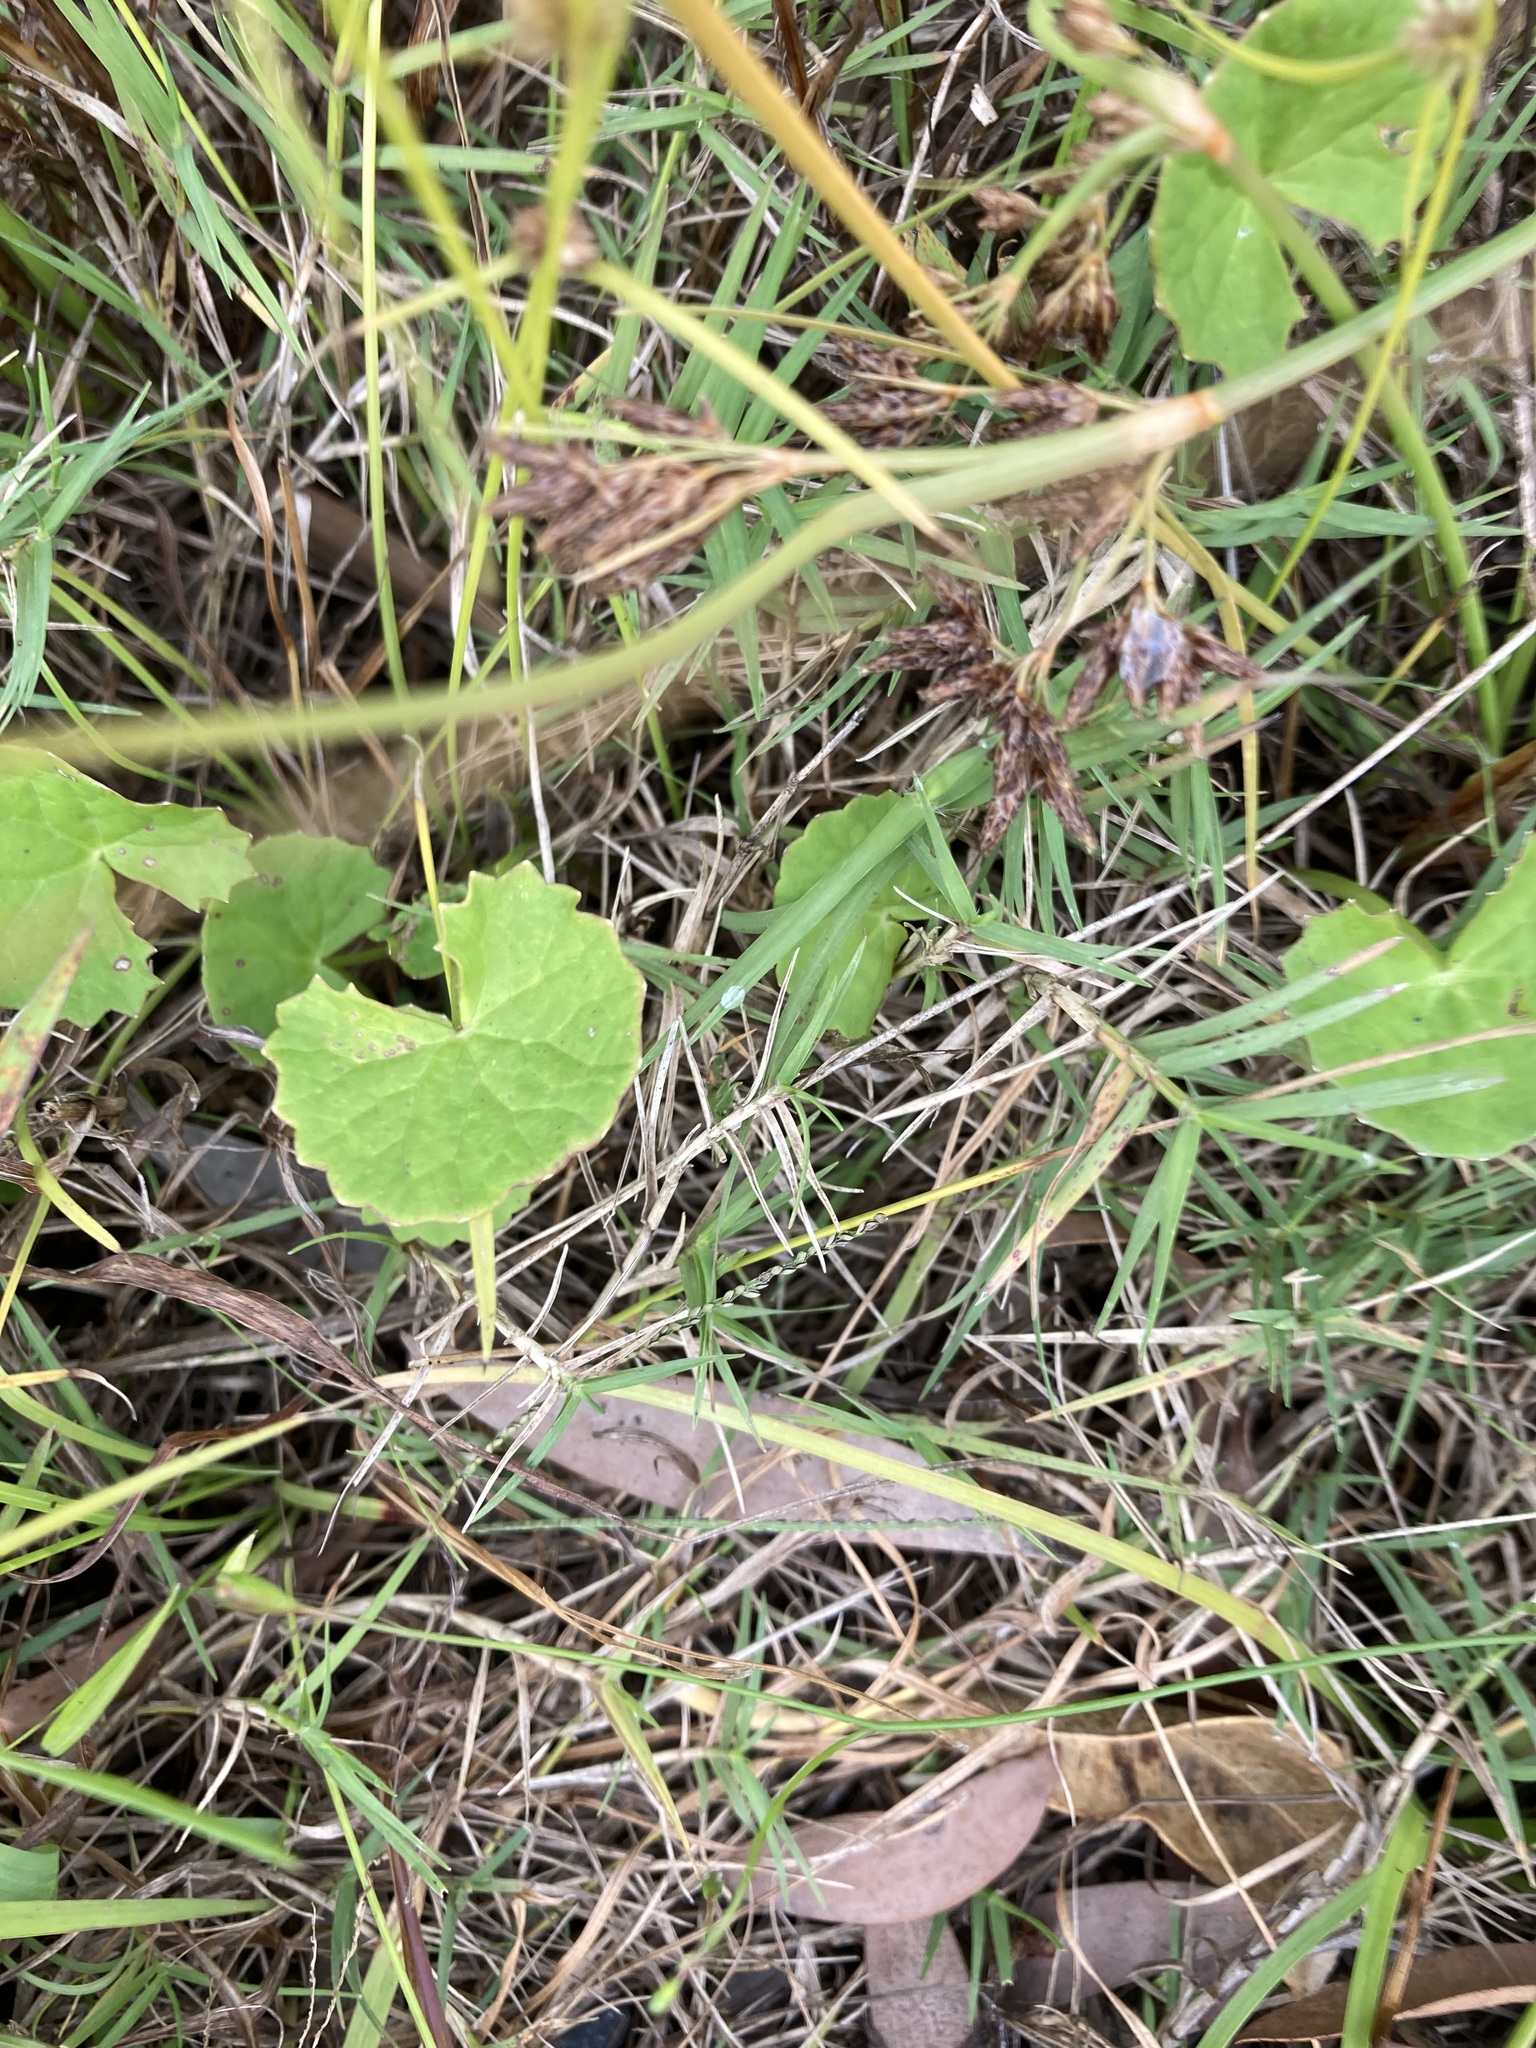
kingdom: Plantae
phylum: Tracheophyta
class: Magnoliopsida
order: Apiales
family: Apiaceae
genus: Centella
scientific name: Centella asiatica
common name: Spadeleaf
